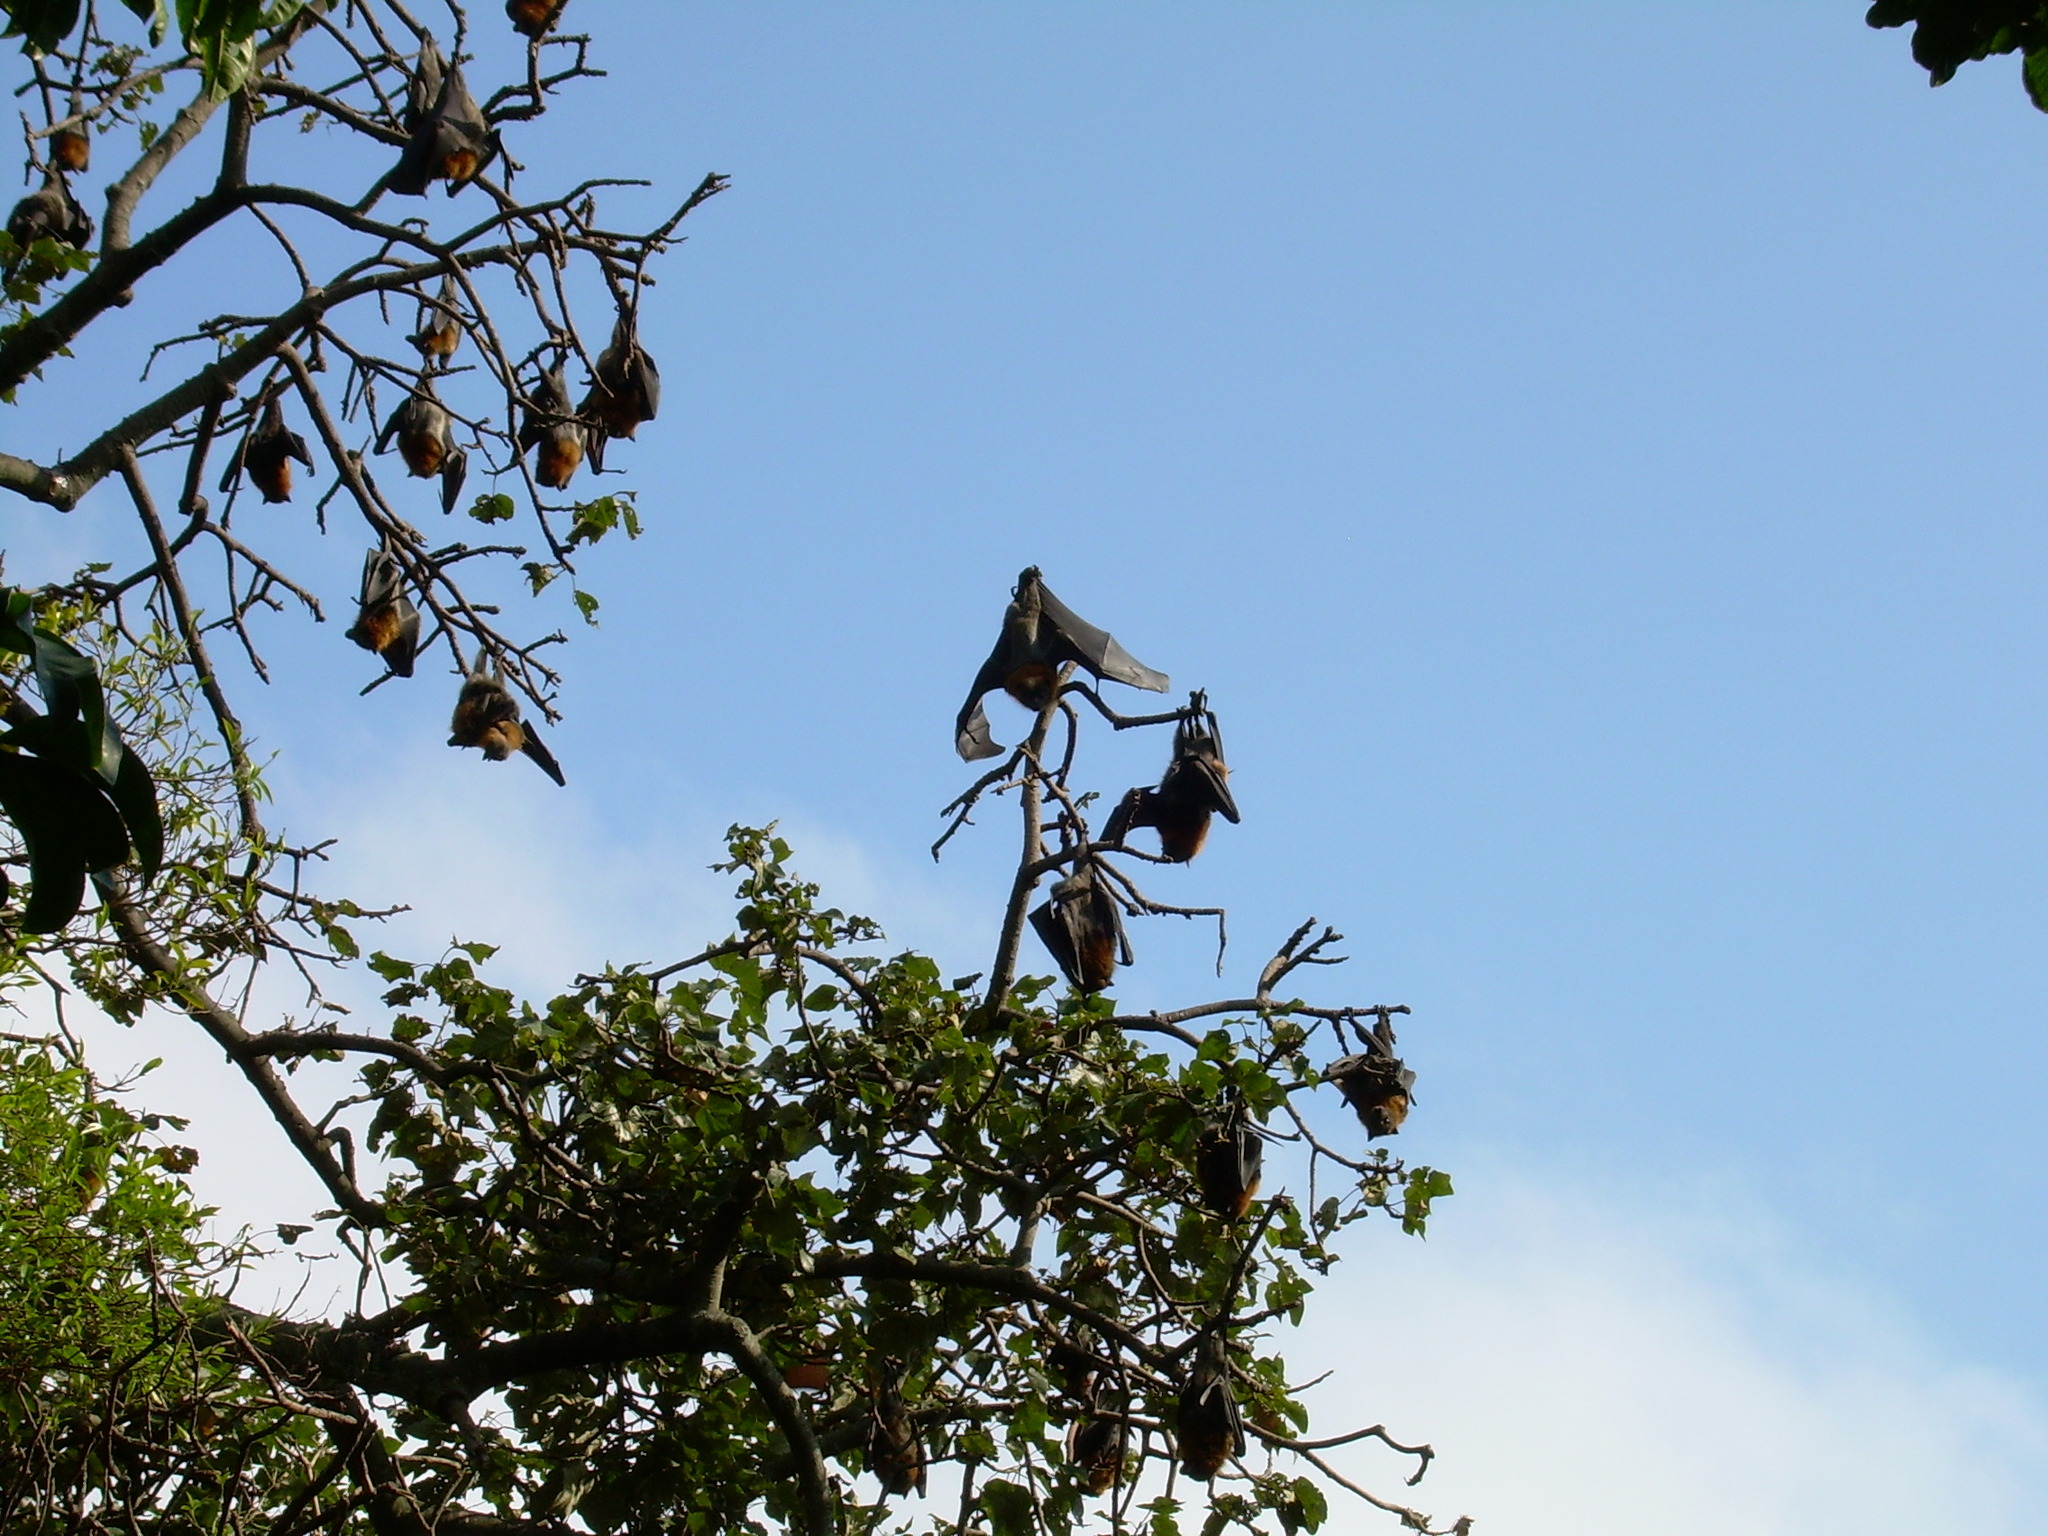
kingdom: Animalia
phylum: Chordata
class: Mammalia
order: Chiroptera
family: Pteropodidae
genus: Pteropus
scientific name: Pteropus poliocephalus
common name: Gray-headed flying fox
